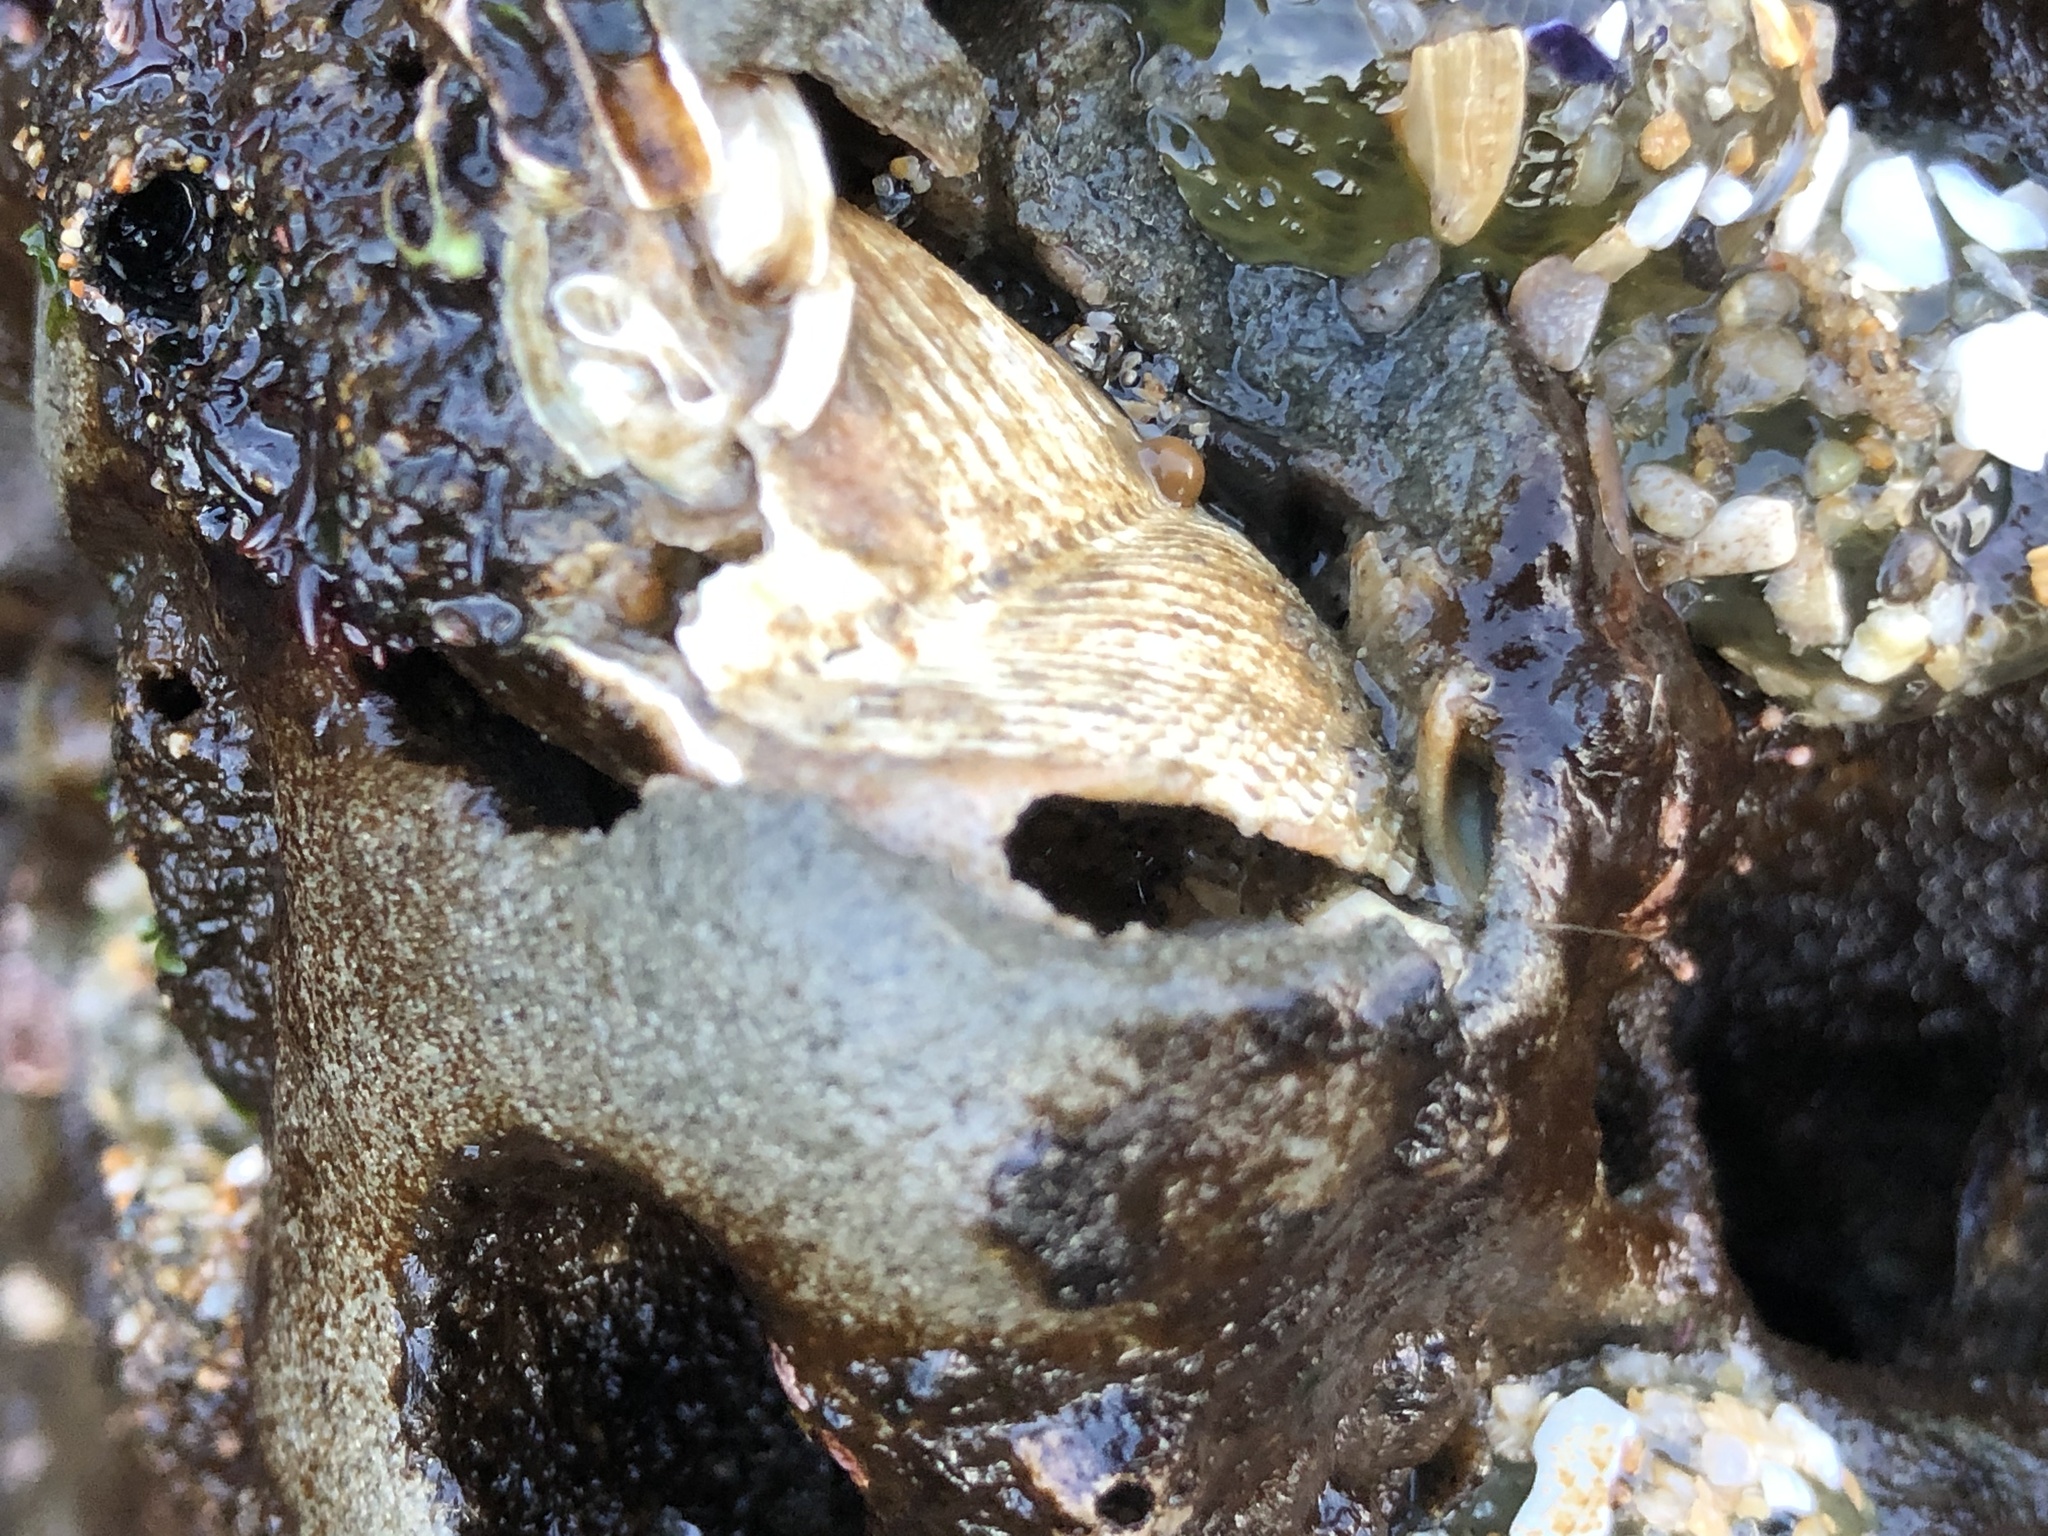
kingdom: Animalia
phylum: Mollusca
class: Bivalvia
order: Myida
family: Pholadidae
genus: Zirfaea
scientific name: Zirfaea pilsbryi
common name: Rough piddock
